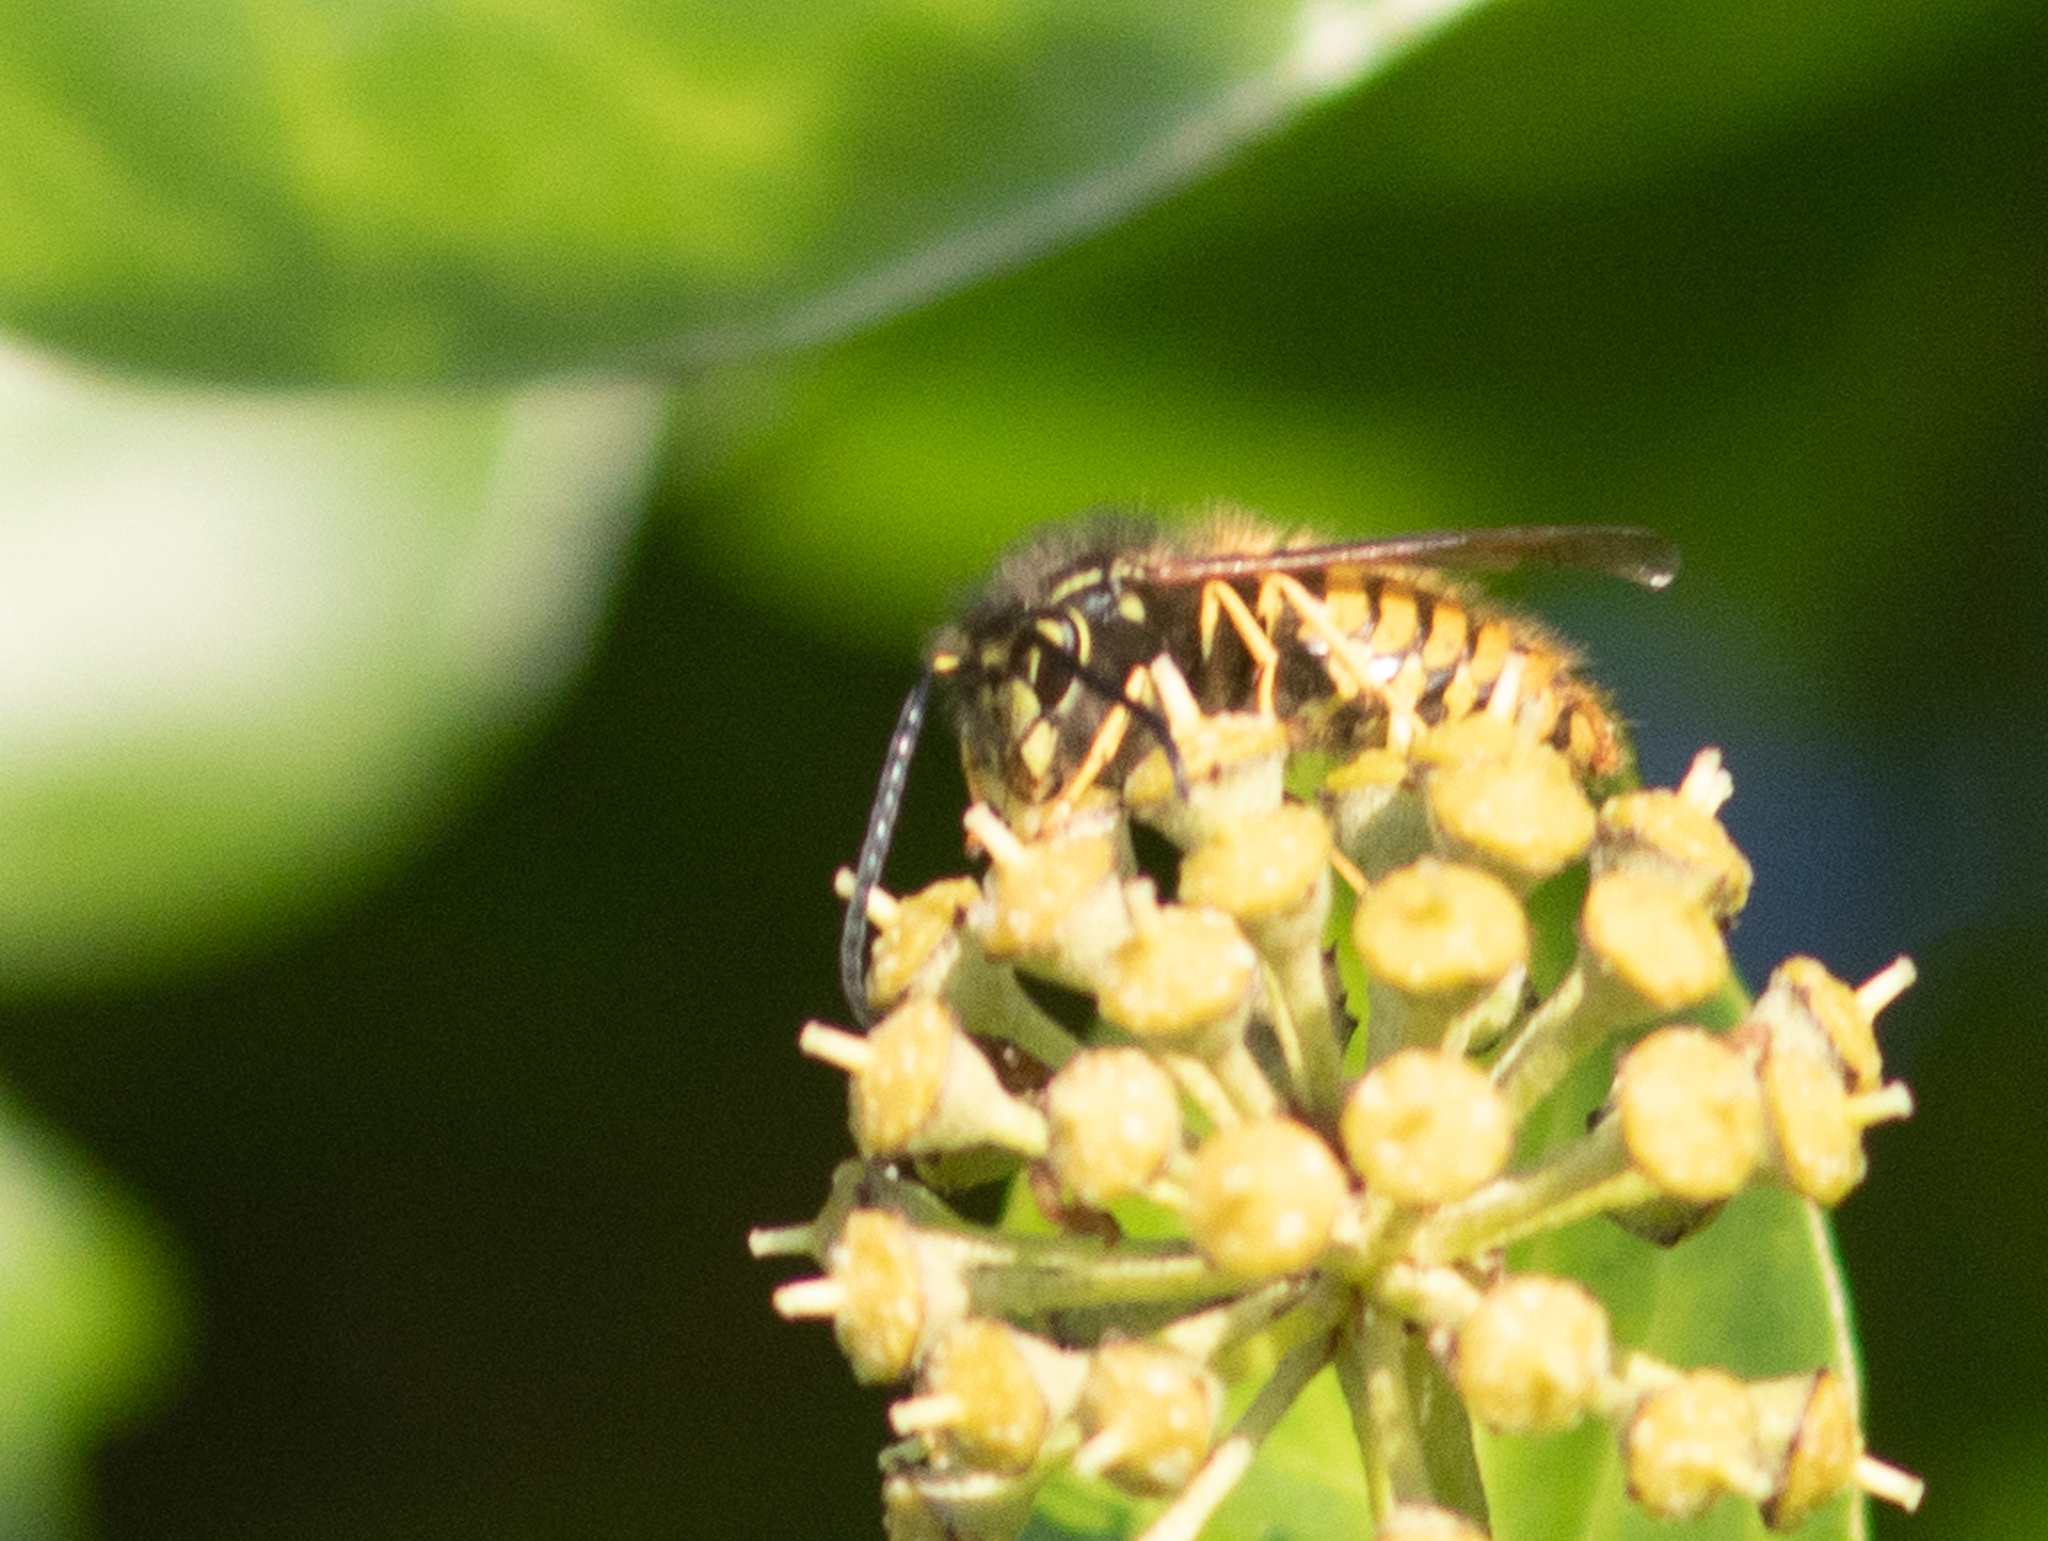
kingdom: Animalia
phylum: Arthropoda
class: Insecta
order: Hymenoptera
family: Vespidae
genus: Vespula
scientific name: Vespula vulgaris
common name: Common wasp
